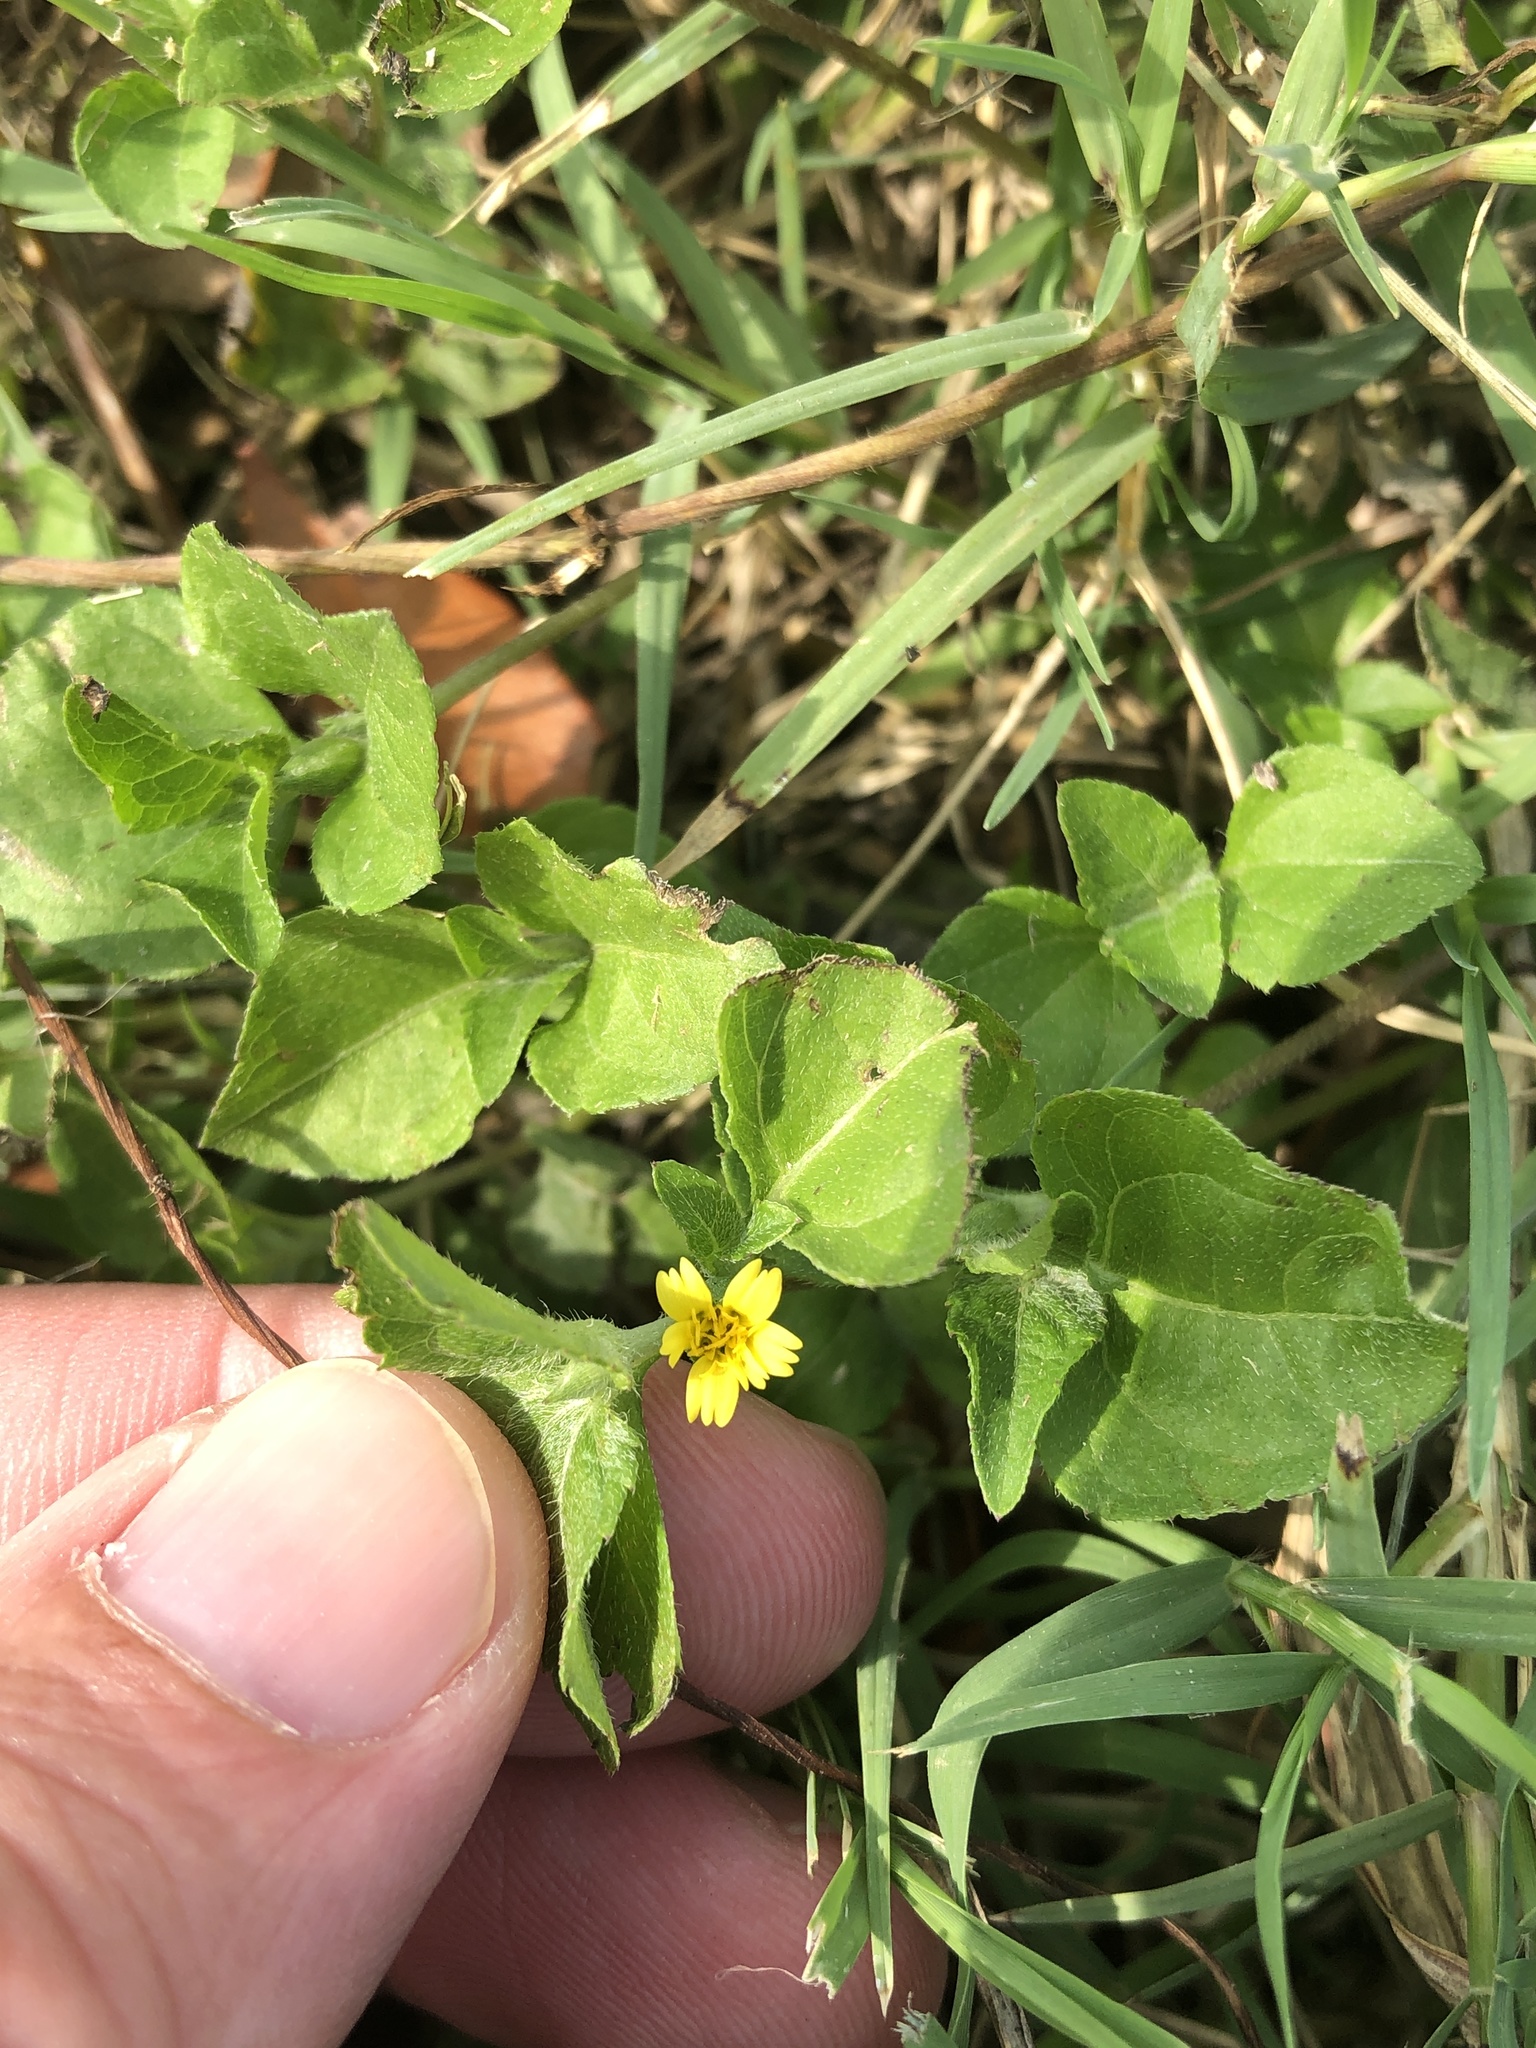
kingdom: Plantae
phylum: Tracheophyta
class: Magnoliopsida
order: Asterales
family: Asteraceae
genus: Calyptocarpus
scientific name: Calyptocarpus vialis
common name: Straggler daisy
